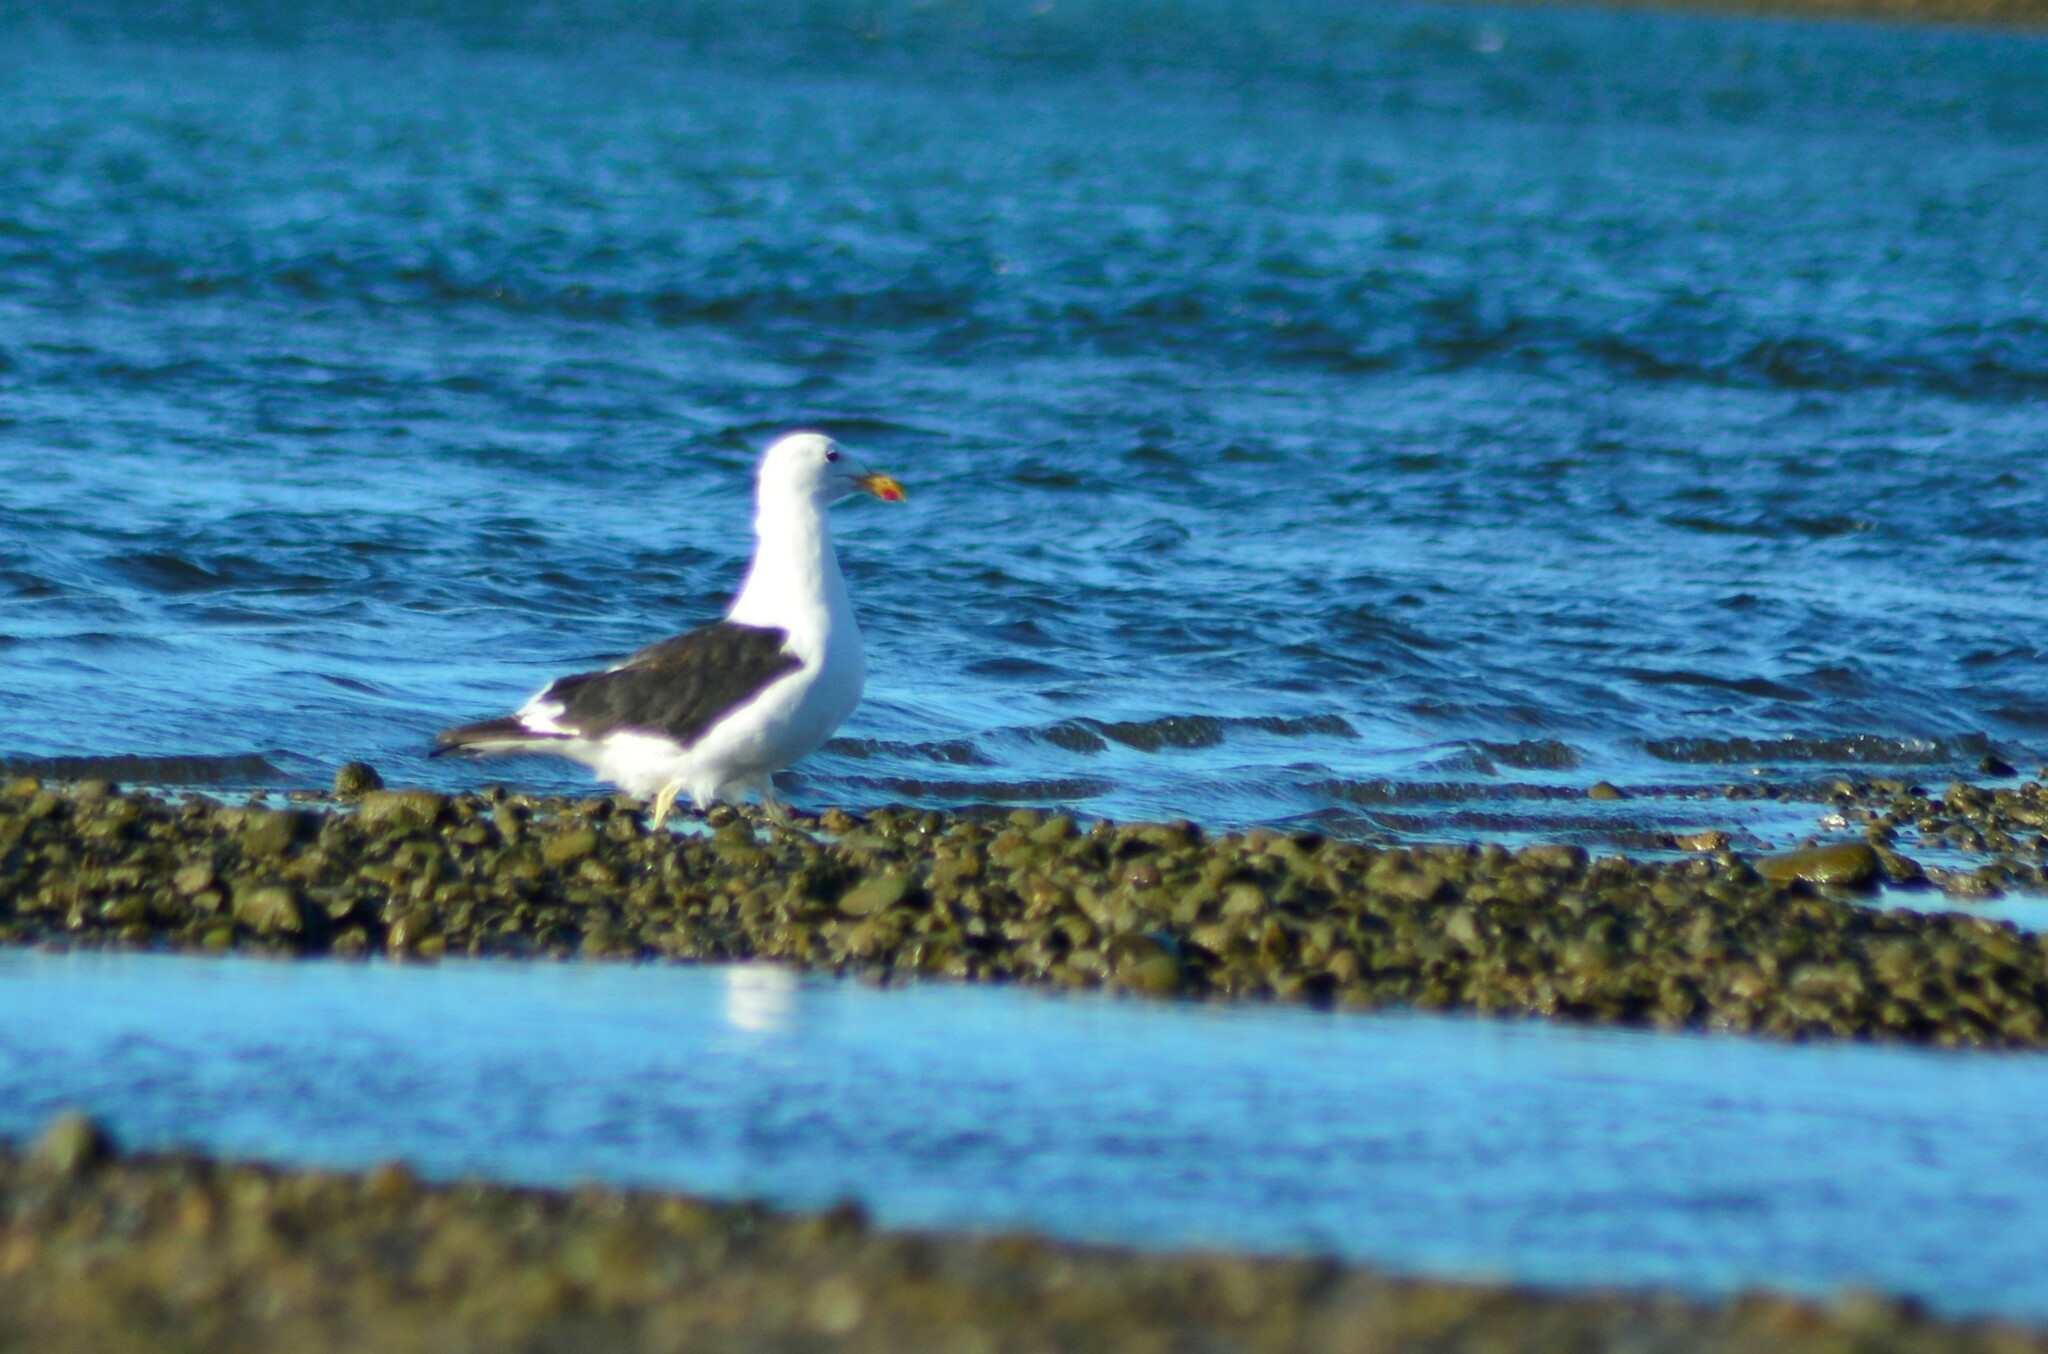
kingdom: Animalia
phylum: Chordata
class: Aves
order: Charadriiformes
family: Laridae
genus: Larus
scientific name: Larus dominicanus
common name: Kelp gull
